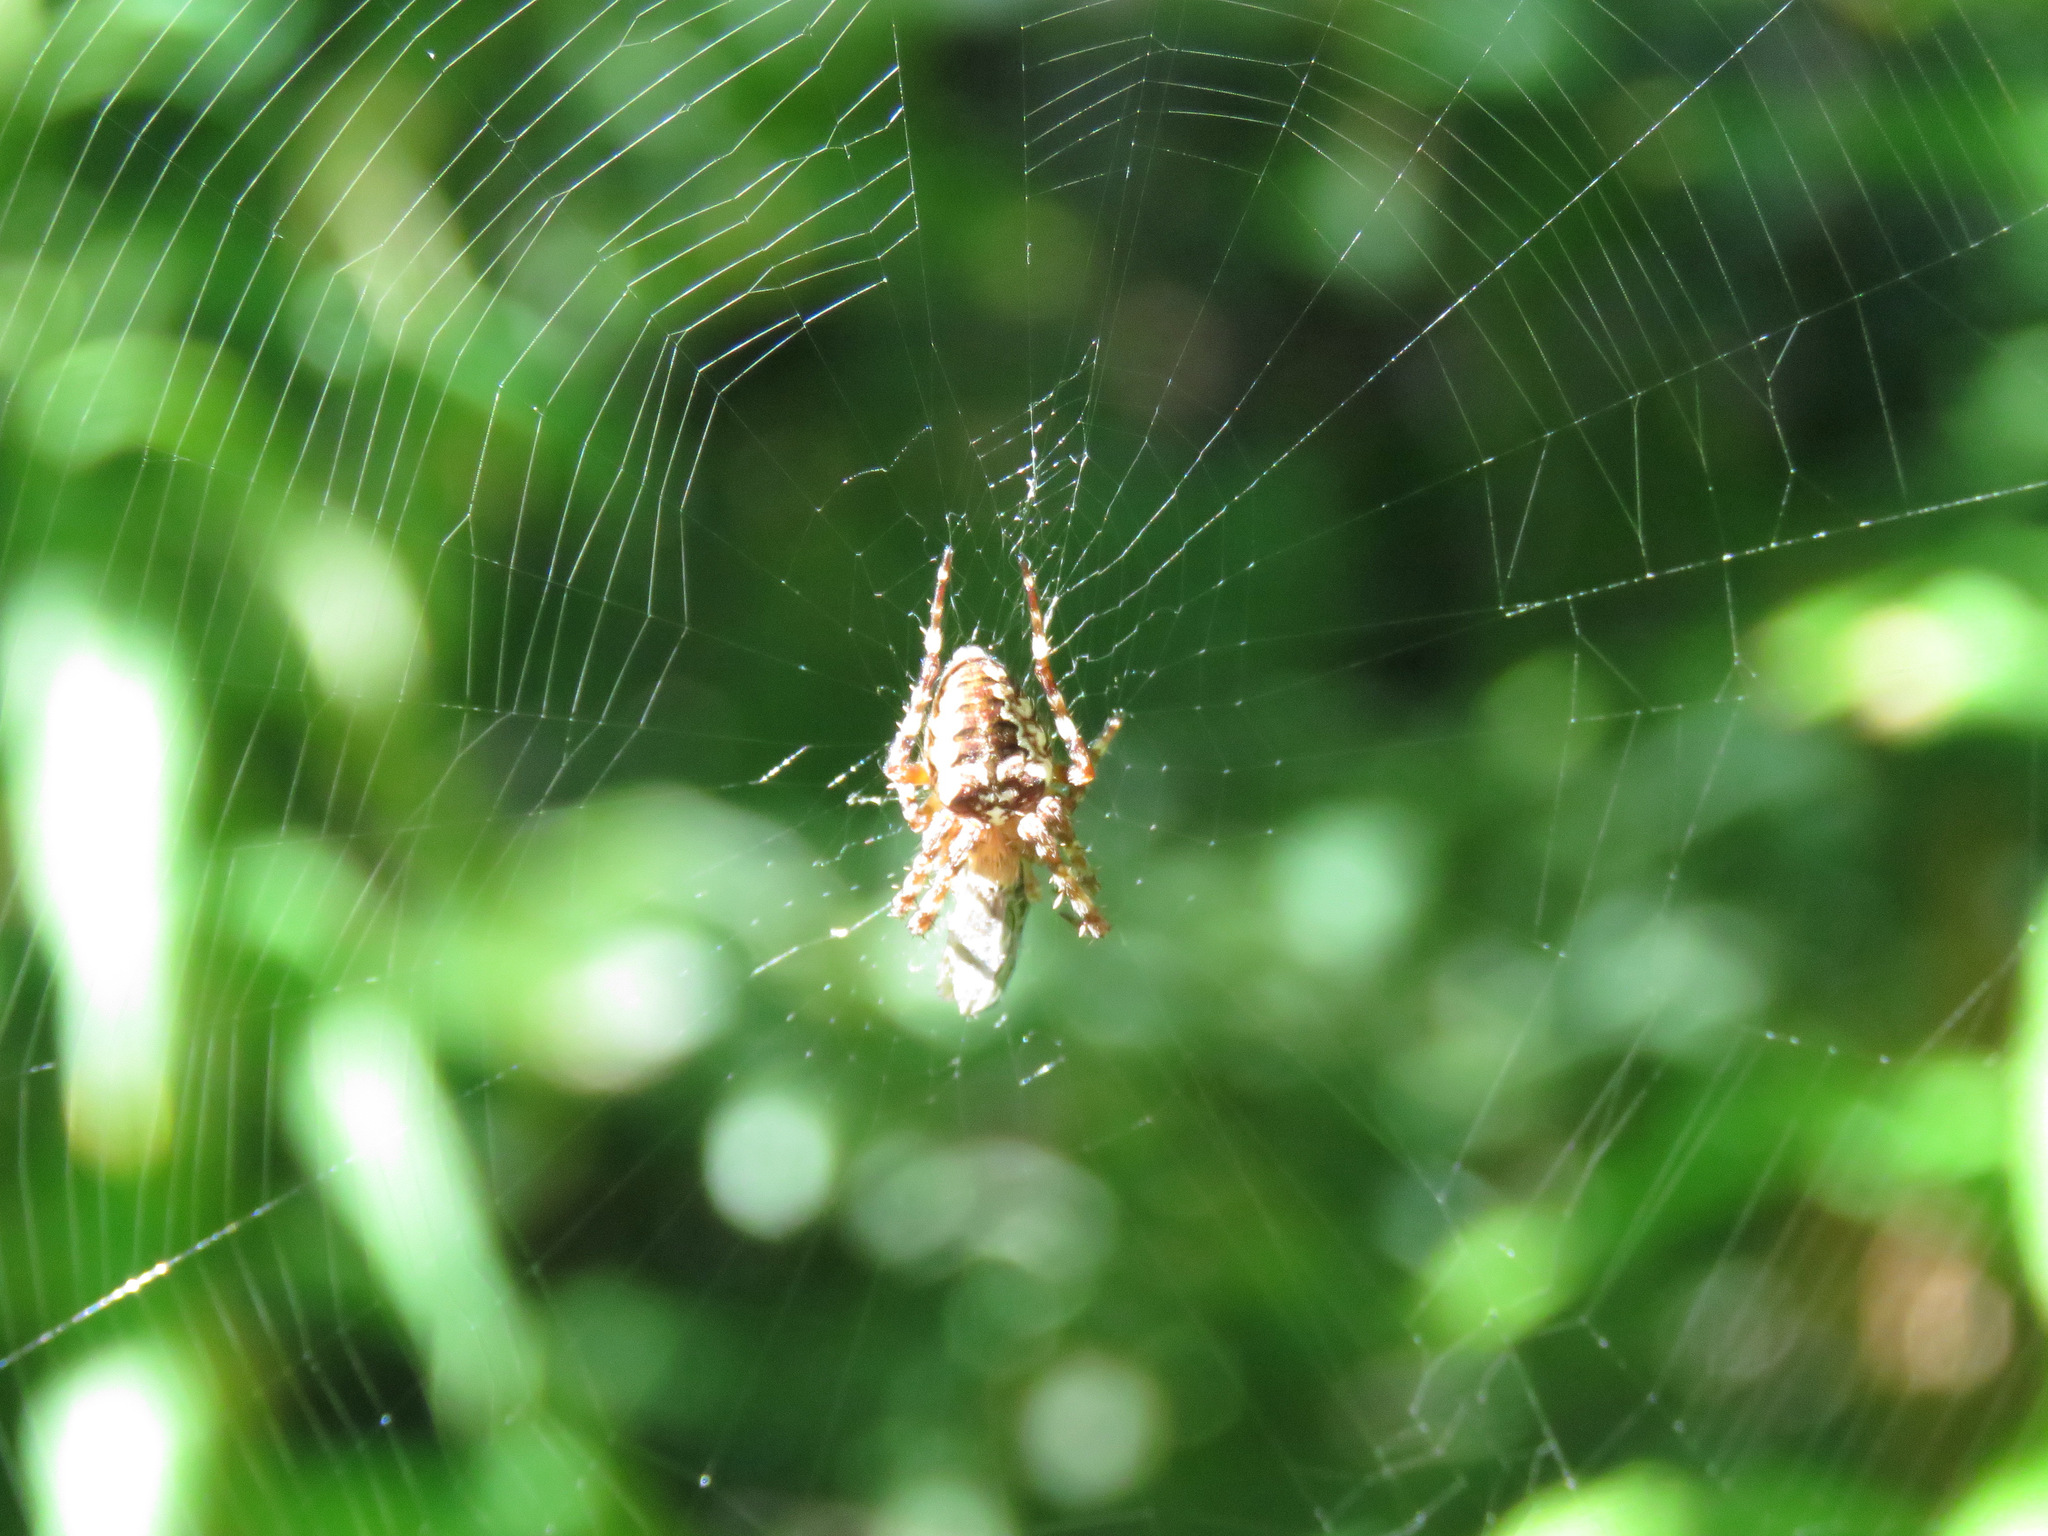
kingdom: Animalia
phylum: Arthropoda
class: Arachnida
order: Araneae
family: Araneidae
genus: Araneus
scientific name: Araneus nordmanni
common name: Nordmann's orbweaver
